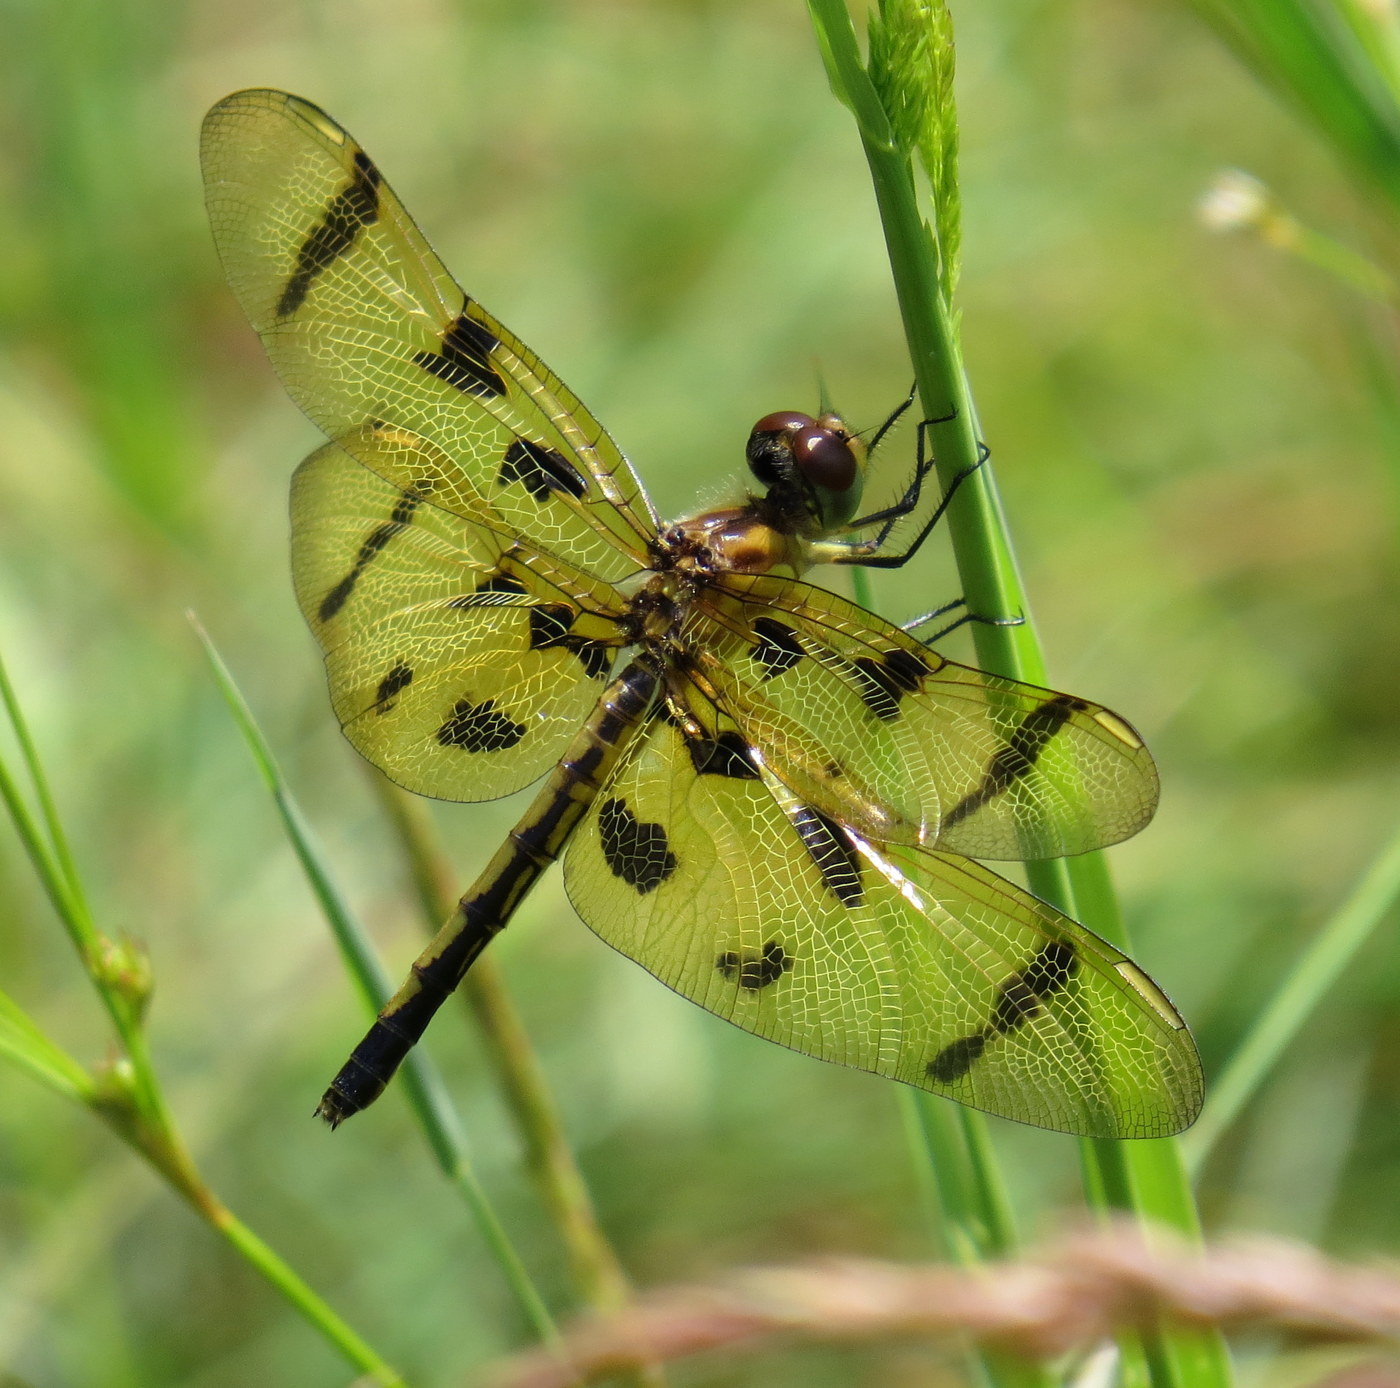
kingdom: Animalia
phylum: Arthropoda
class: Insecta
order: Odonata
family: Libellulidae
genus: Celithemis
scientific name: Celithemis eponina
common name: Halloween pennant
